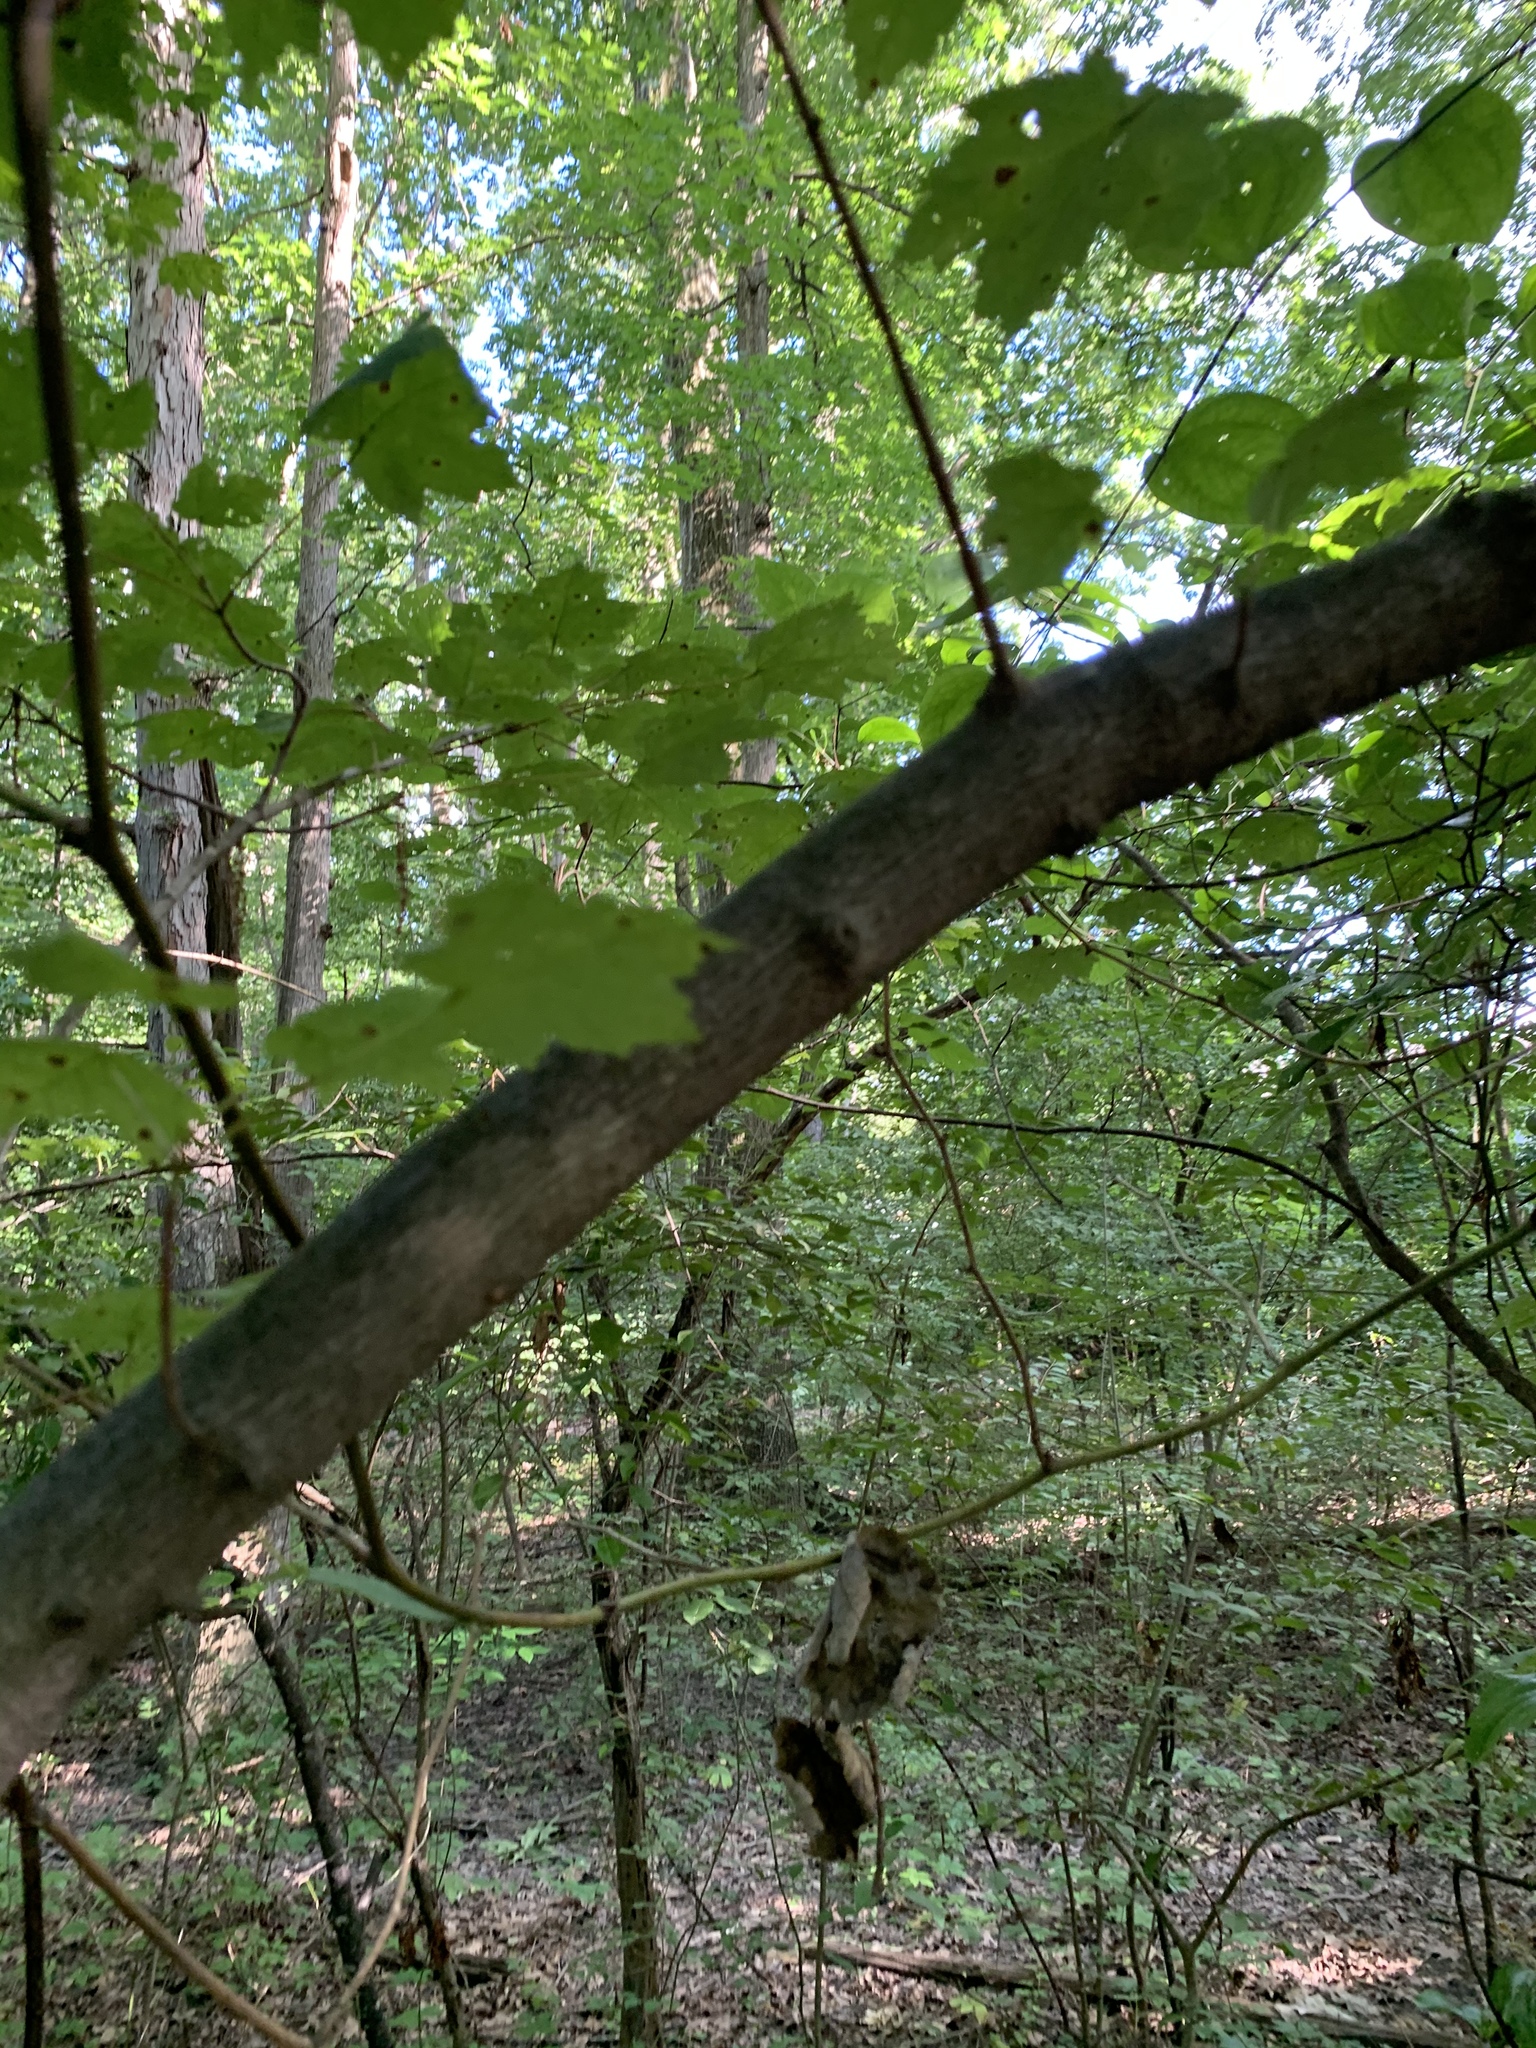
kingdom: Plantae
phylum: Tracheophyta
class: Magnoliopsida
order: Sapindales
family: Sapindaceae
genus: Acer
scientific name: Acer rubrum
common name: Red maple
